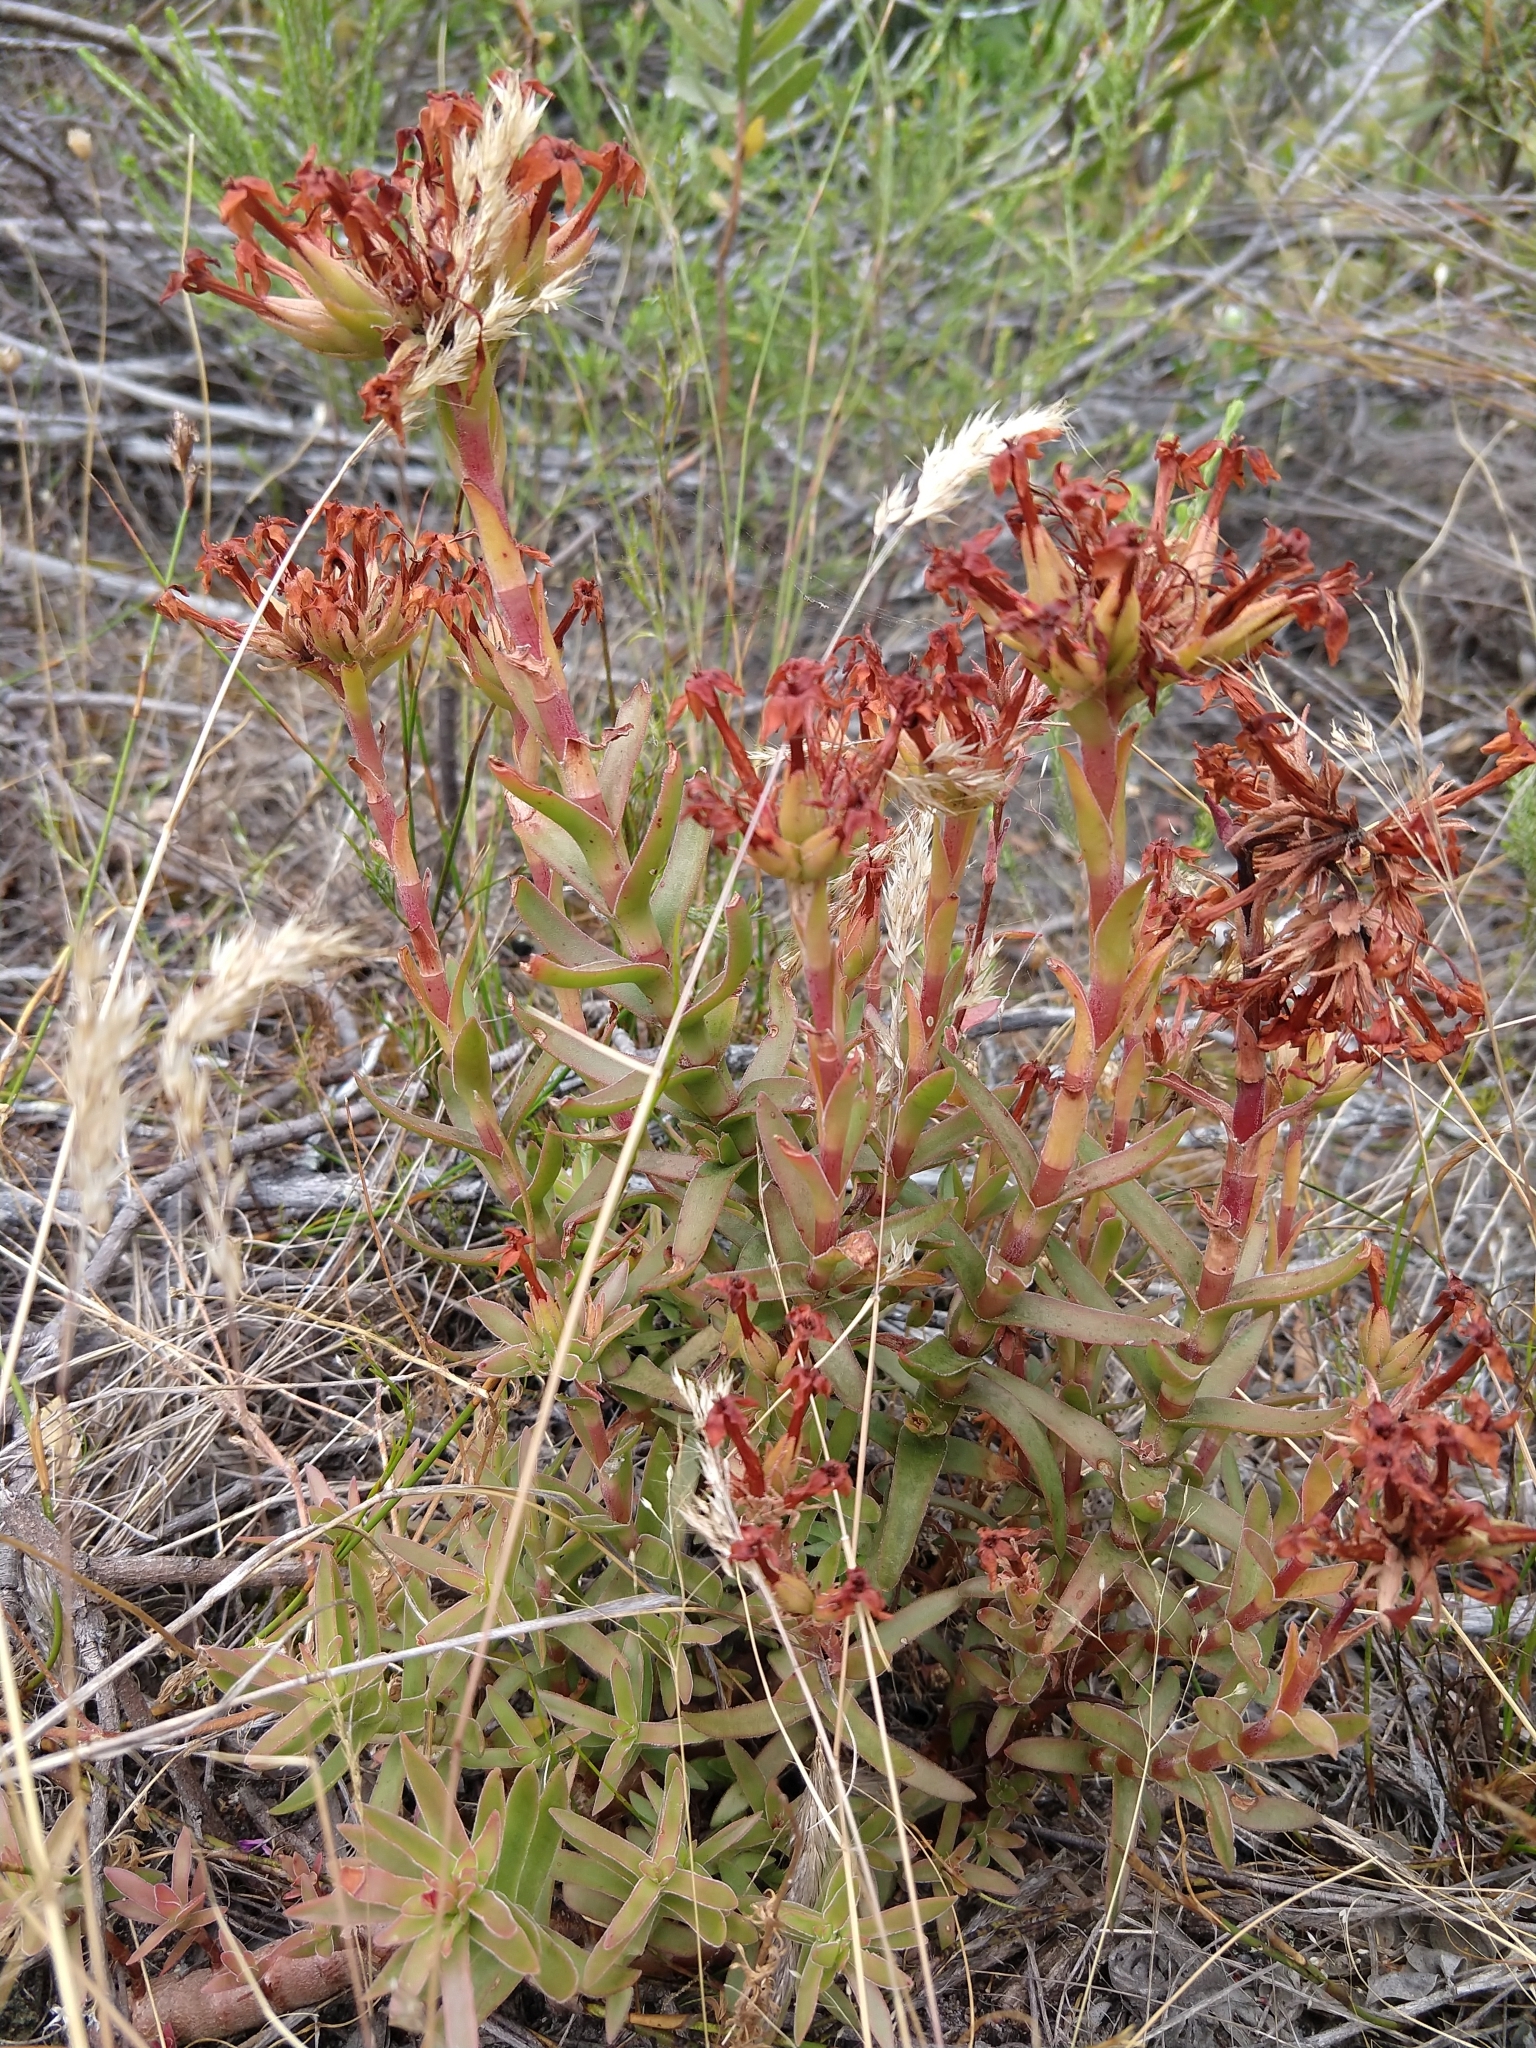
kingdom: Plantae
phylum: Tracheophyta
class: Magnoliopsida
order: Saxifragales
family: Crassulaceae
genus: Crassula
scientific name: Crassula fascicularis
